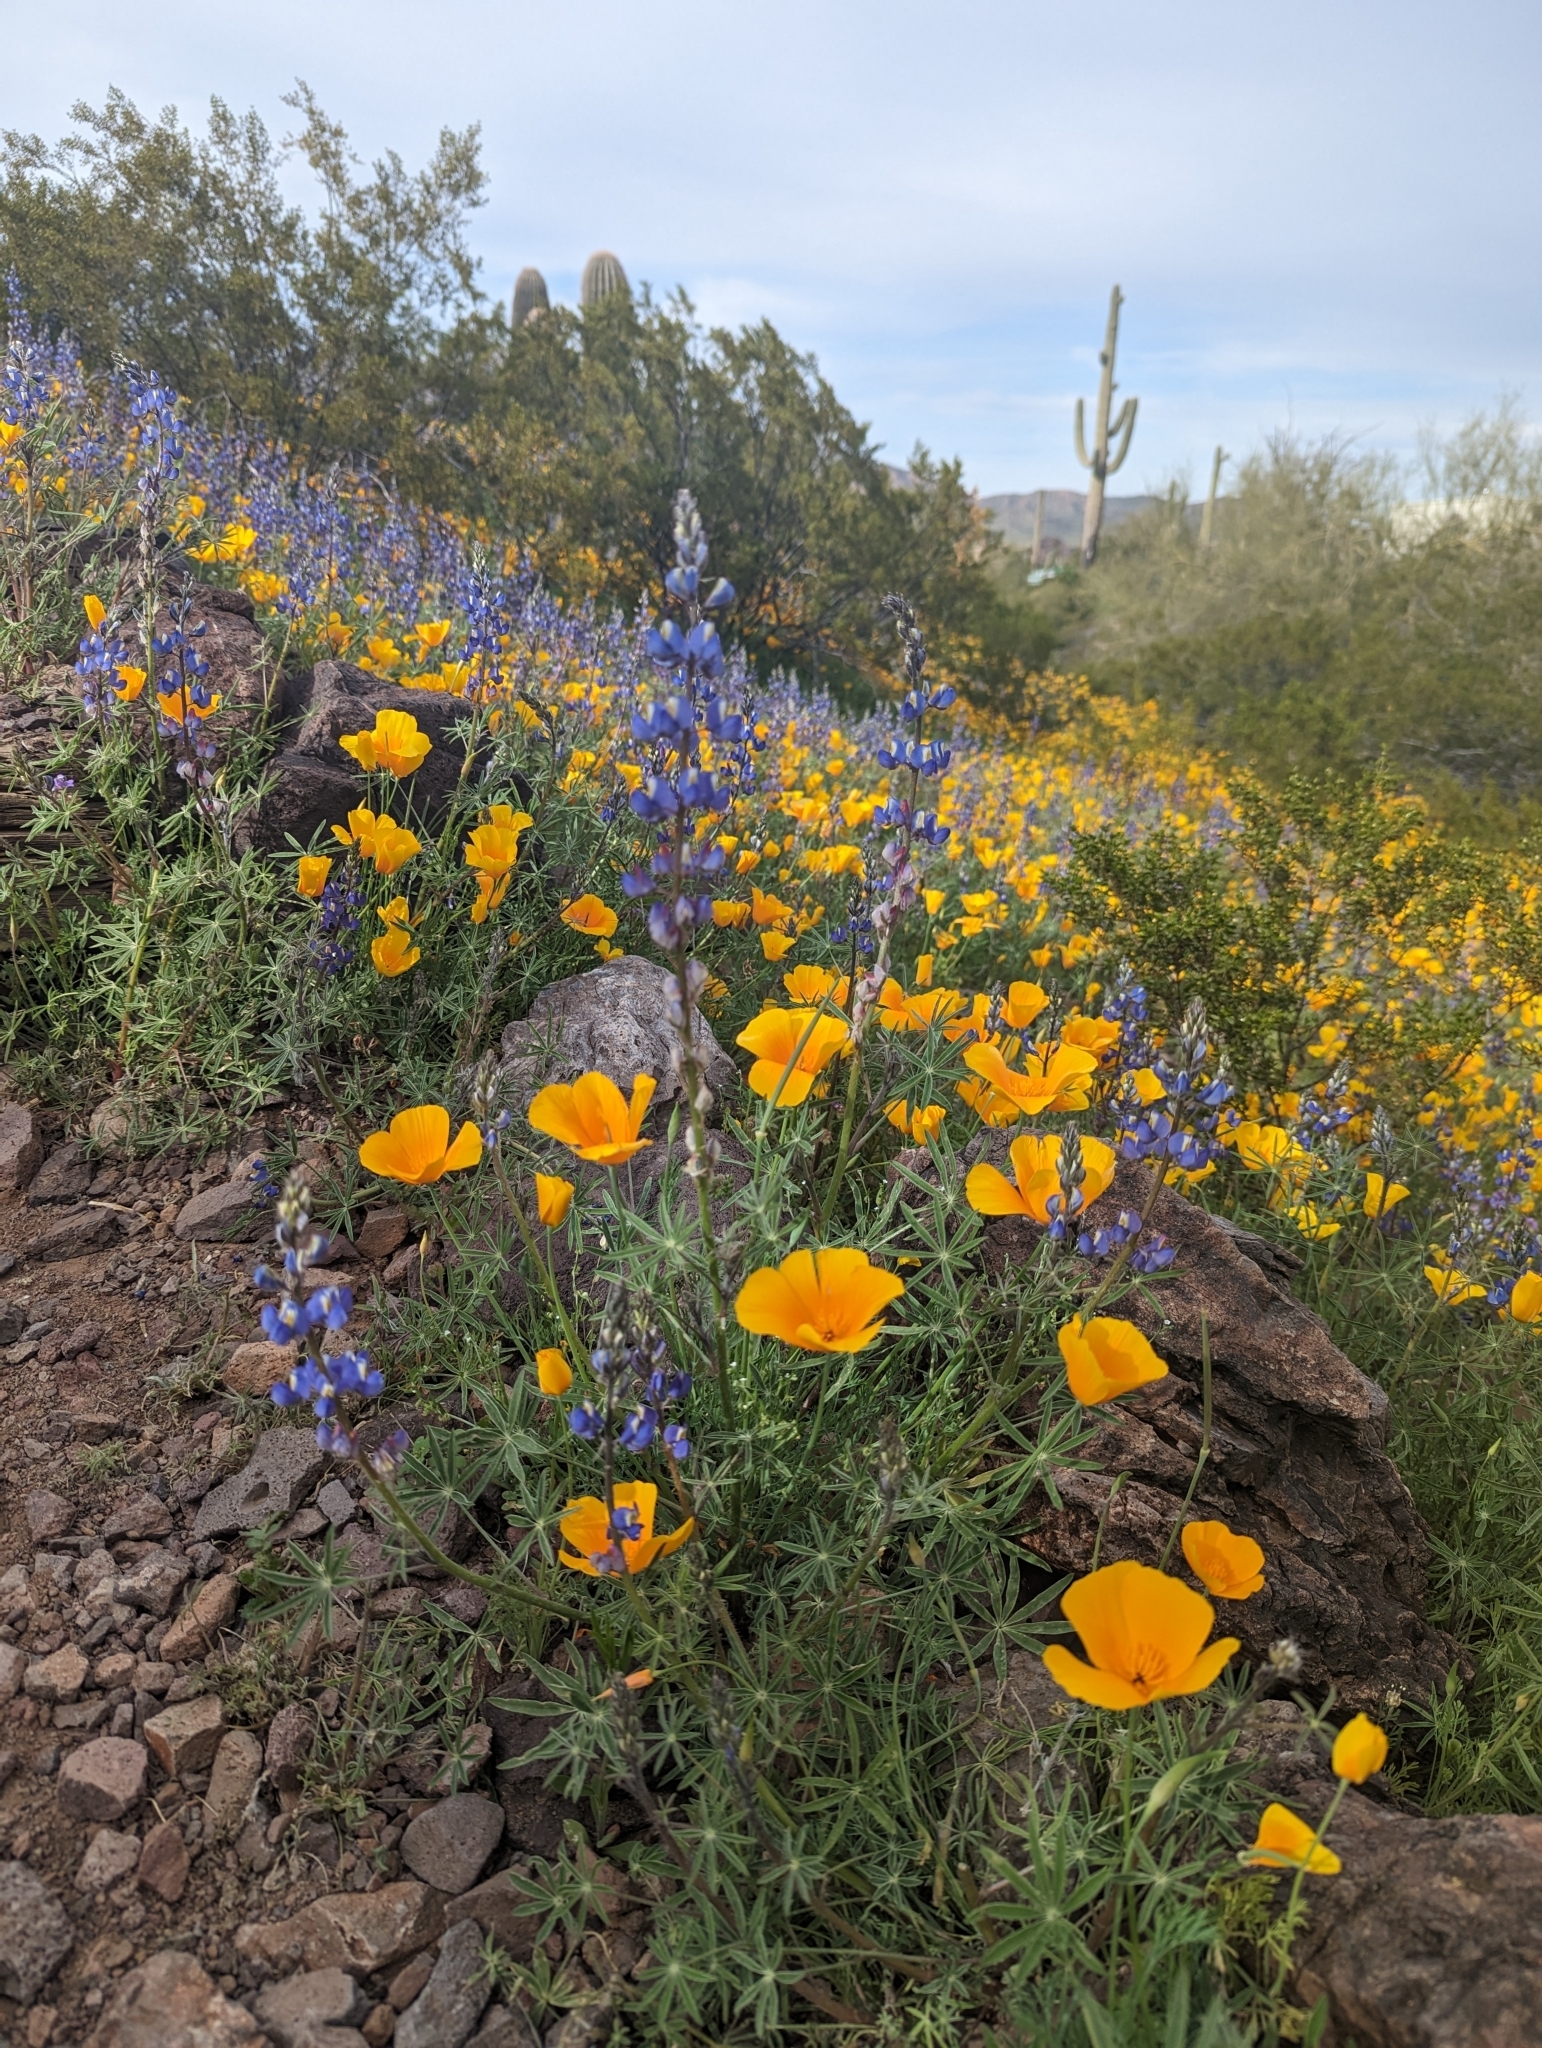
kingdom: Plantae
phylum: Tracheophyta
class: Magnoliopsida
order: Ranunculales
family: Papaveraceae
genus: Eschscholzia
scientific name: Eschscholzia californica
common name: California poppy
